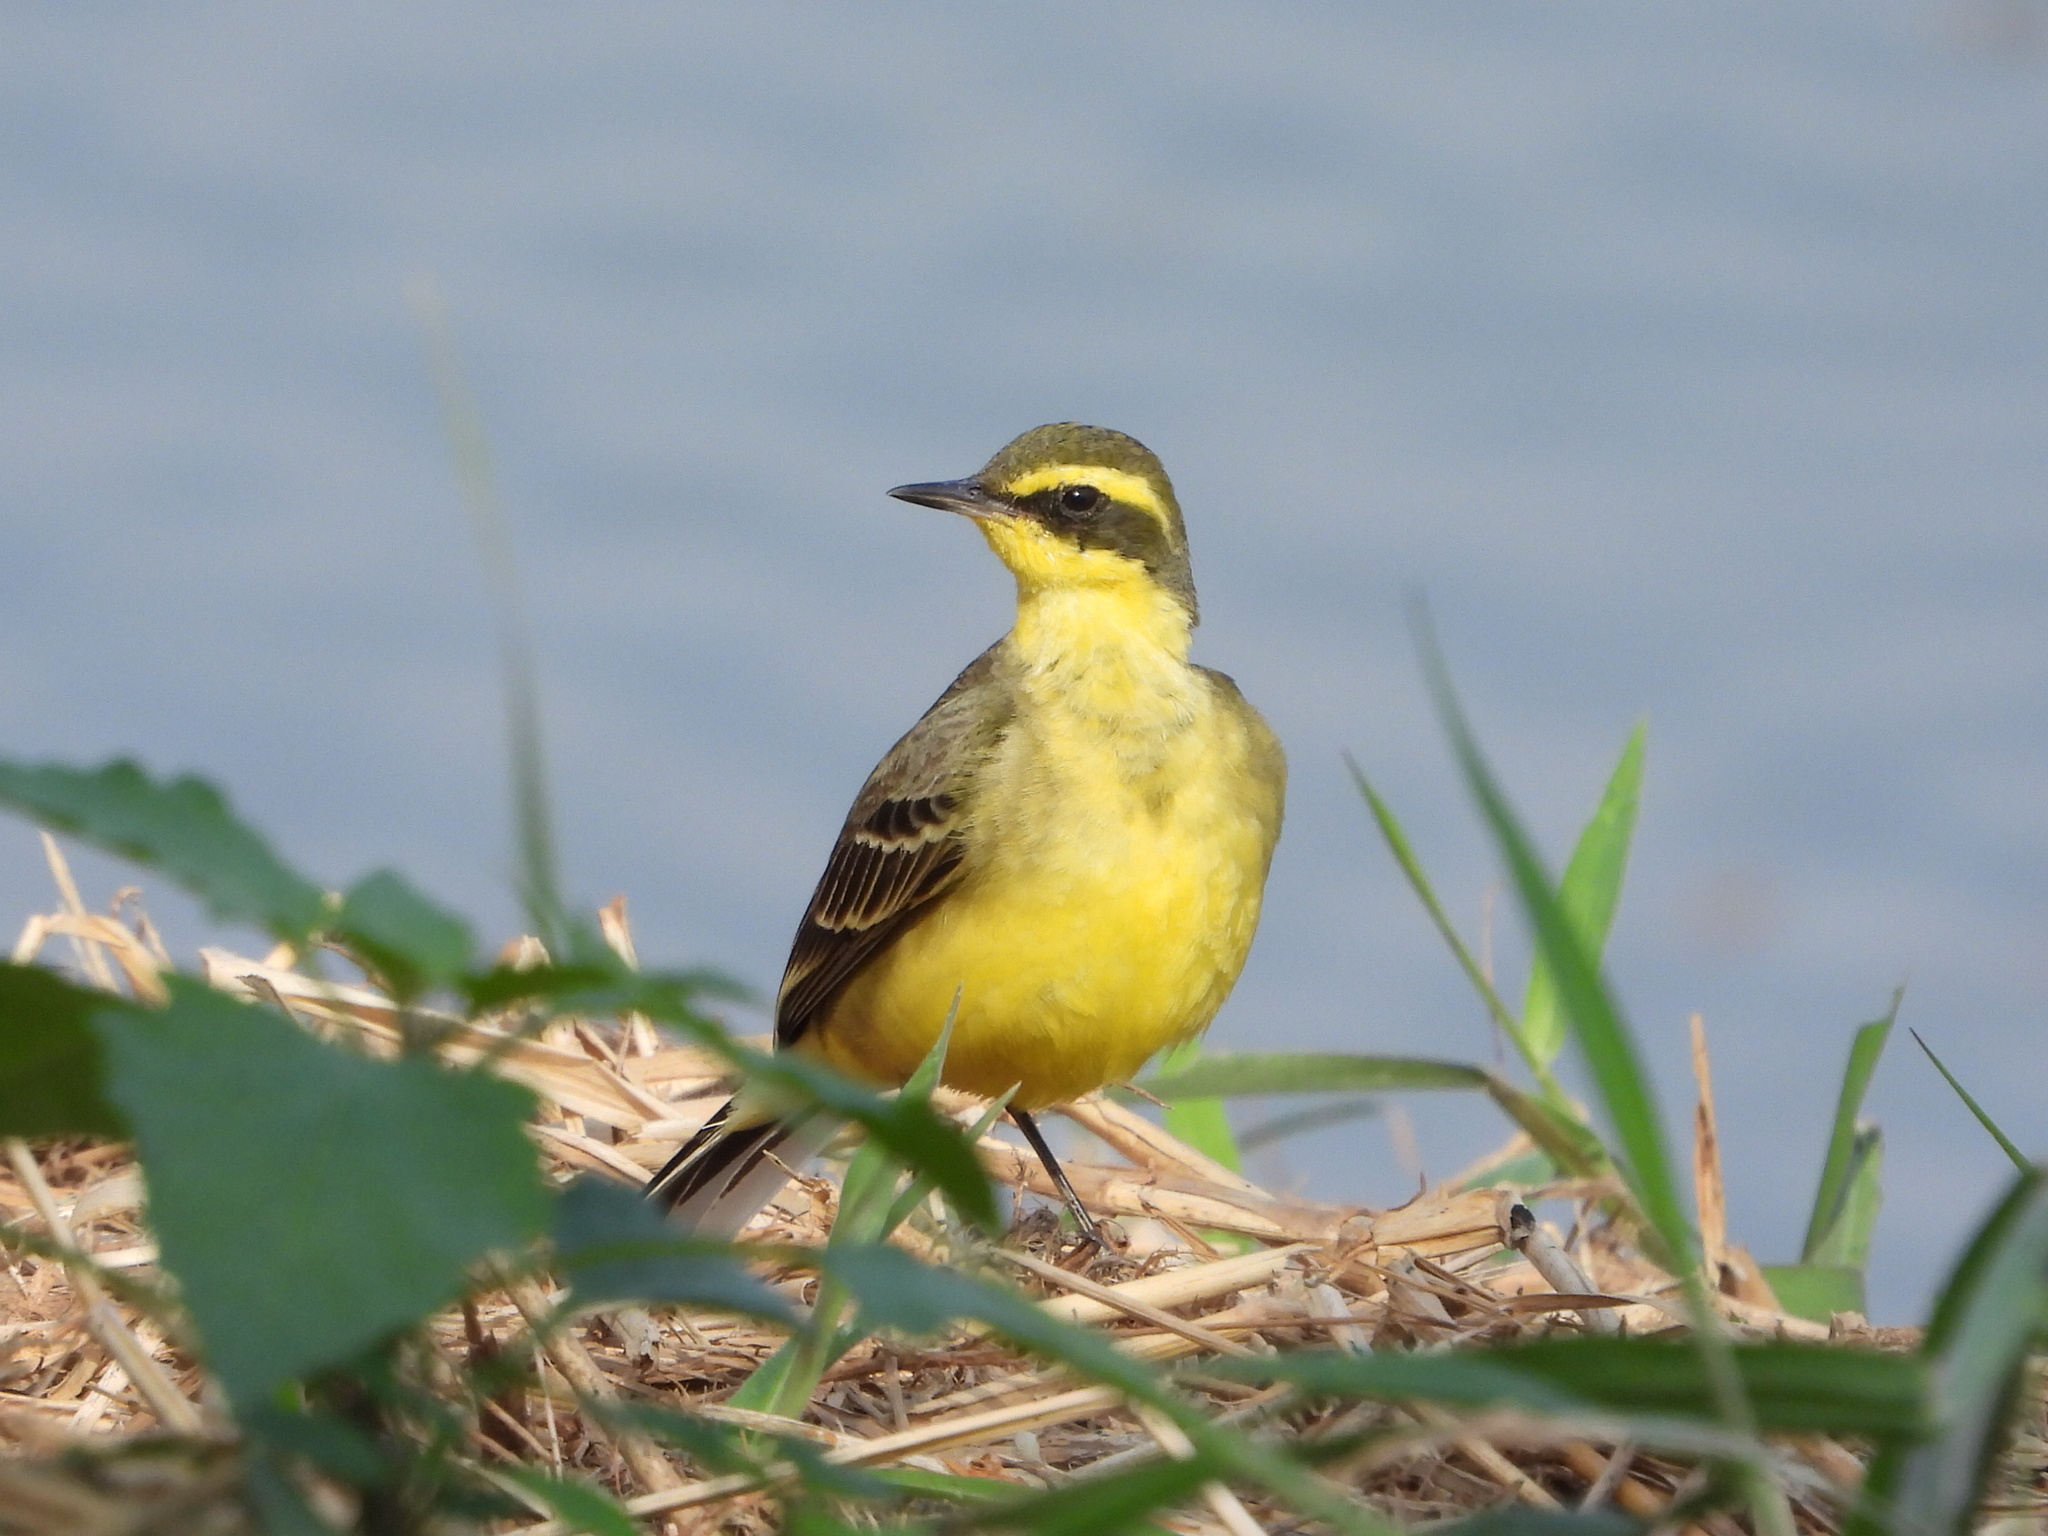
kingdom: Animalia
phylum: Chordata
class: Aves
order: Passeriformes
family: Motacillidae
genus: Motacilla
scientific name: Motacilla tschutschensis
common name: Eastern yellow wagtail
